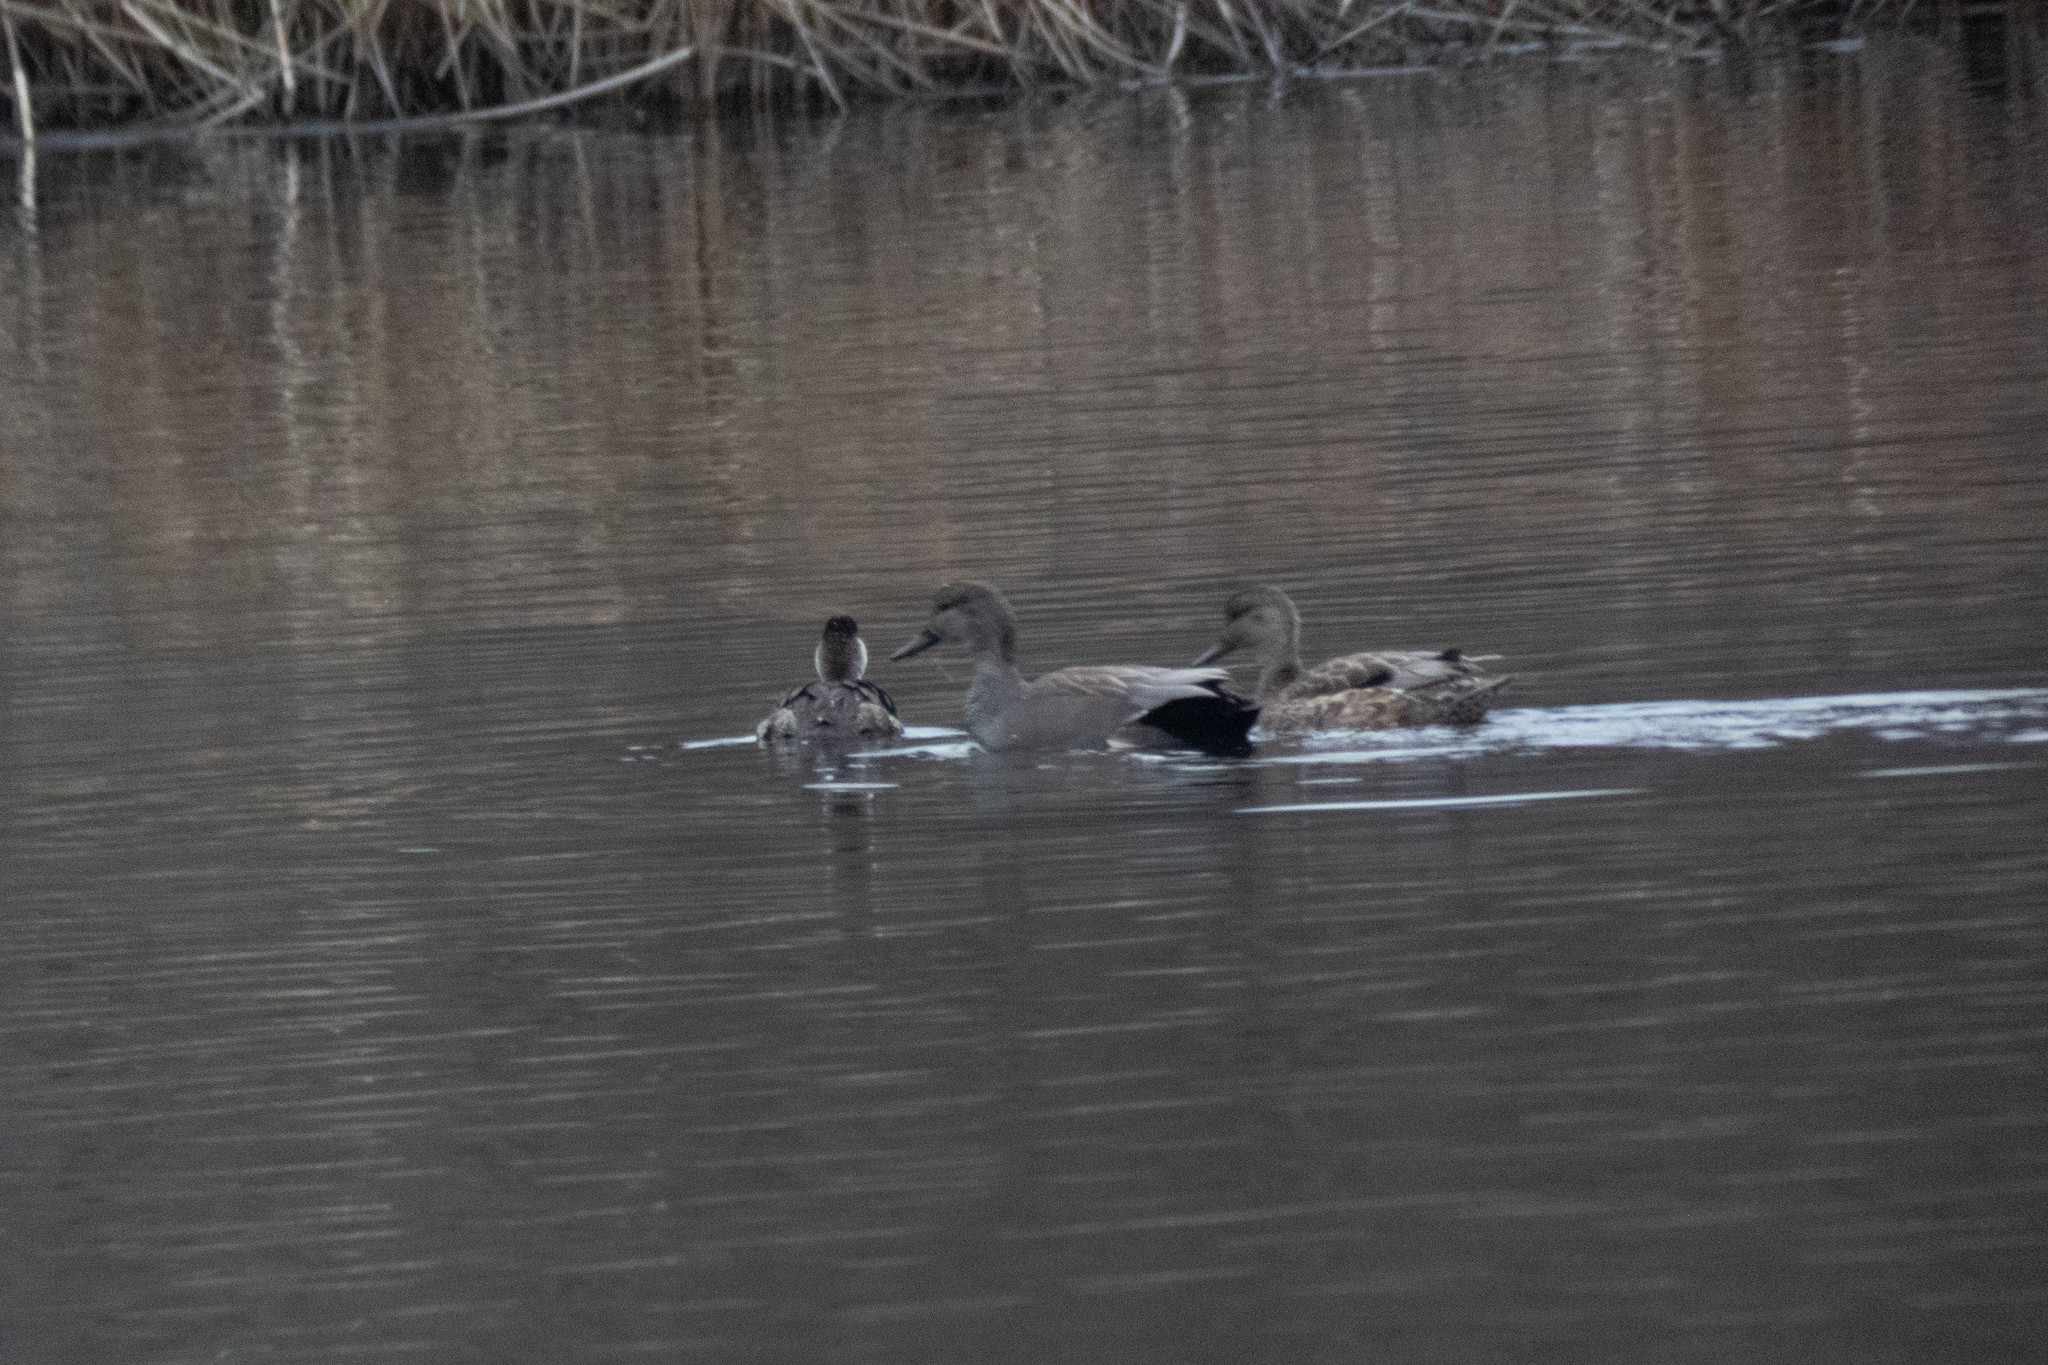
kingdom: Animalia
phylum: Chordata
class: Aves
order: Anseriformes
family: Anatidae
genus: Mareca
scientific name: Mareca strepera
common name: Gadwall
